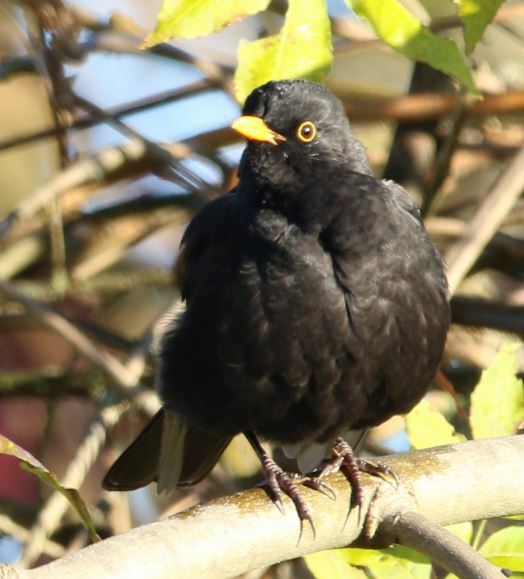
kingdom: Animalia
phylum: Chordata
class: Aves
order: Passeriformes
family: Turdidae
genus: Turdus
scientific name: Turdus merula
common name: Common blackbird
